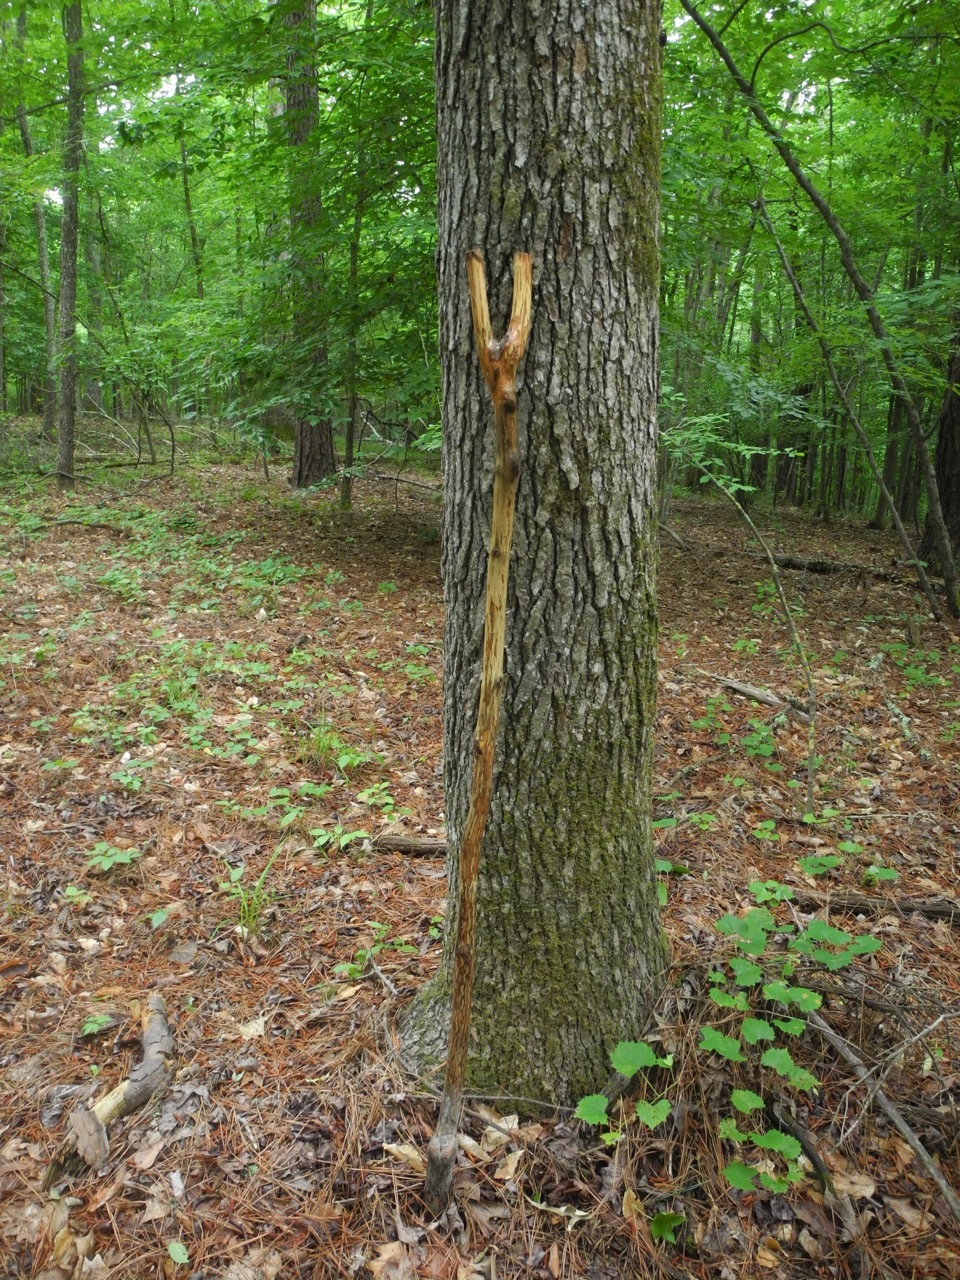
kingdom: Plantae
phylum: Tracheophyta
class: Magnoliopsida
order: Saxifragales
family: Altingiaceae
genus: Liquidambar
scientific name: Liquidambar styraciflua
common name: Sweet gum
